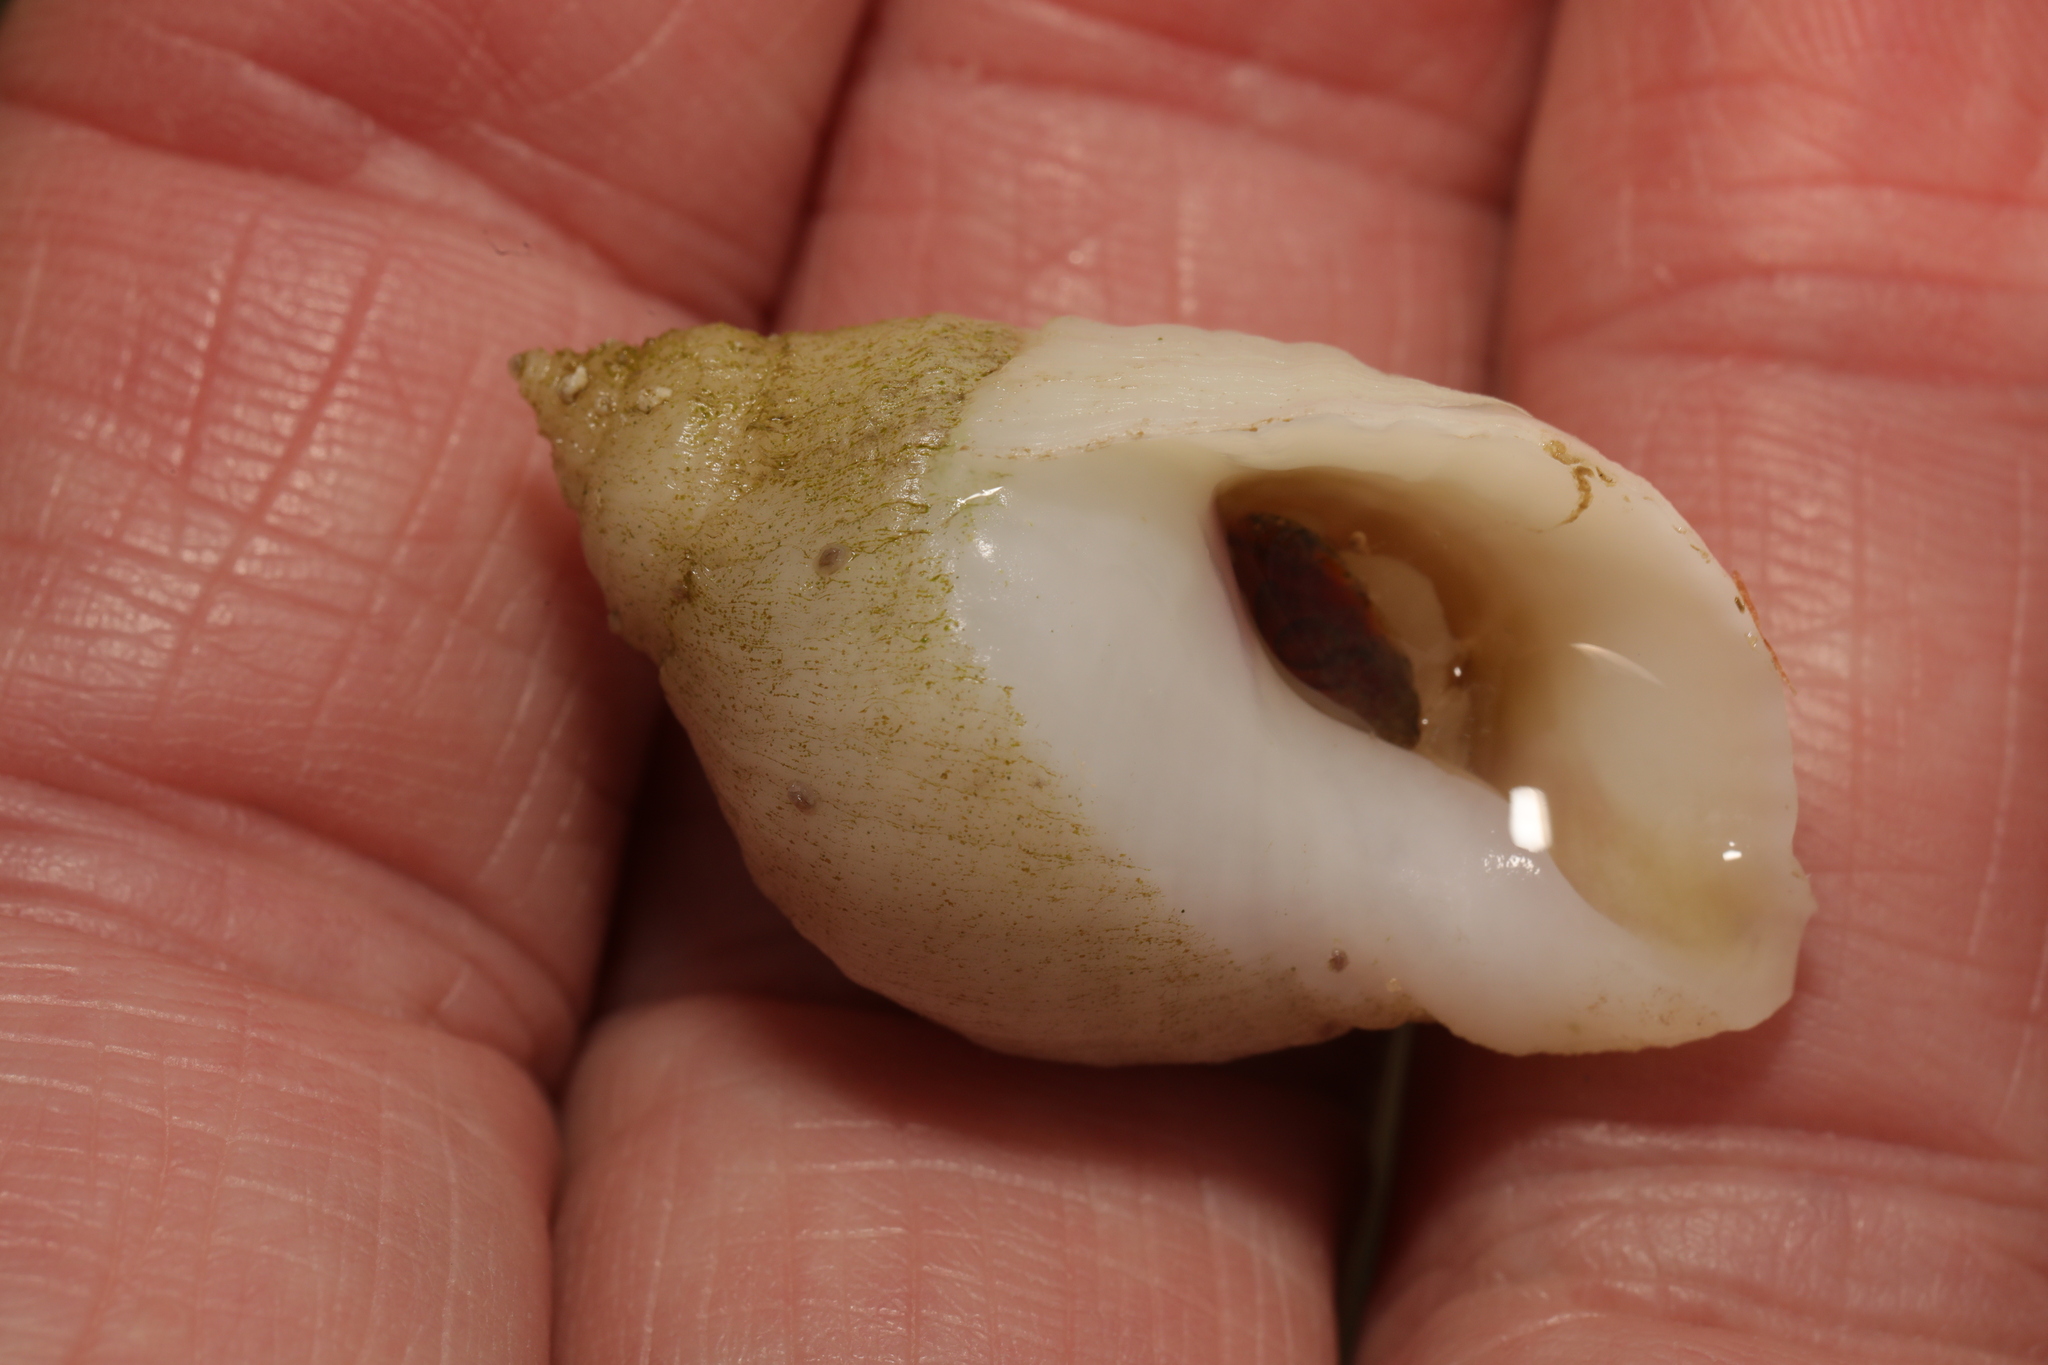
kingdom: Animalia
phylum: Mollusca
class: Gastropoda
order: Neogastropoda
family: Muricidae
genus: Nucella
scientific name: Nucella lapillus
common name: Dog whelk
